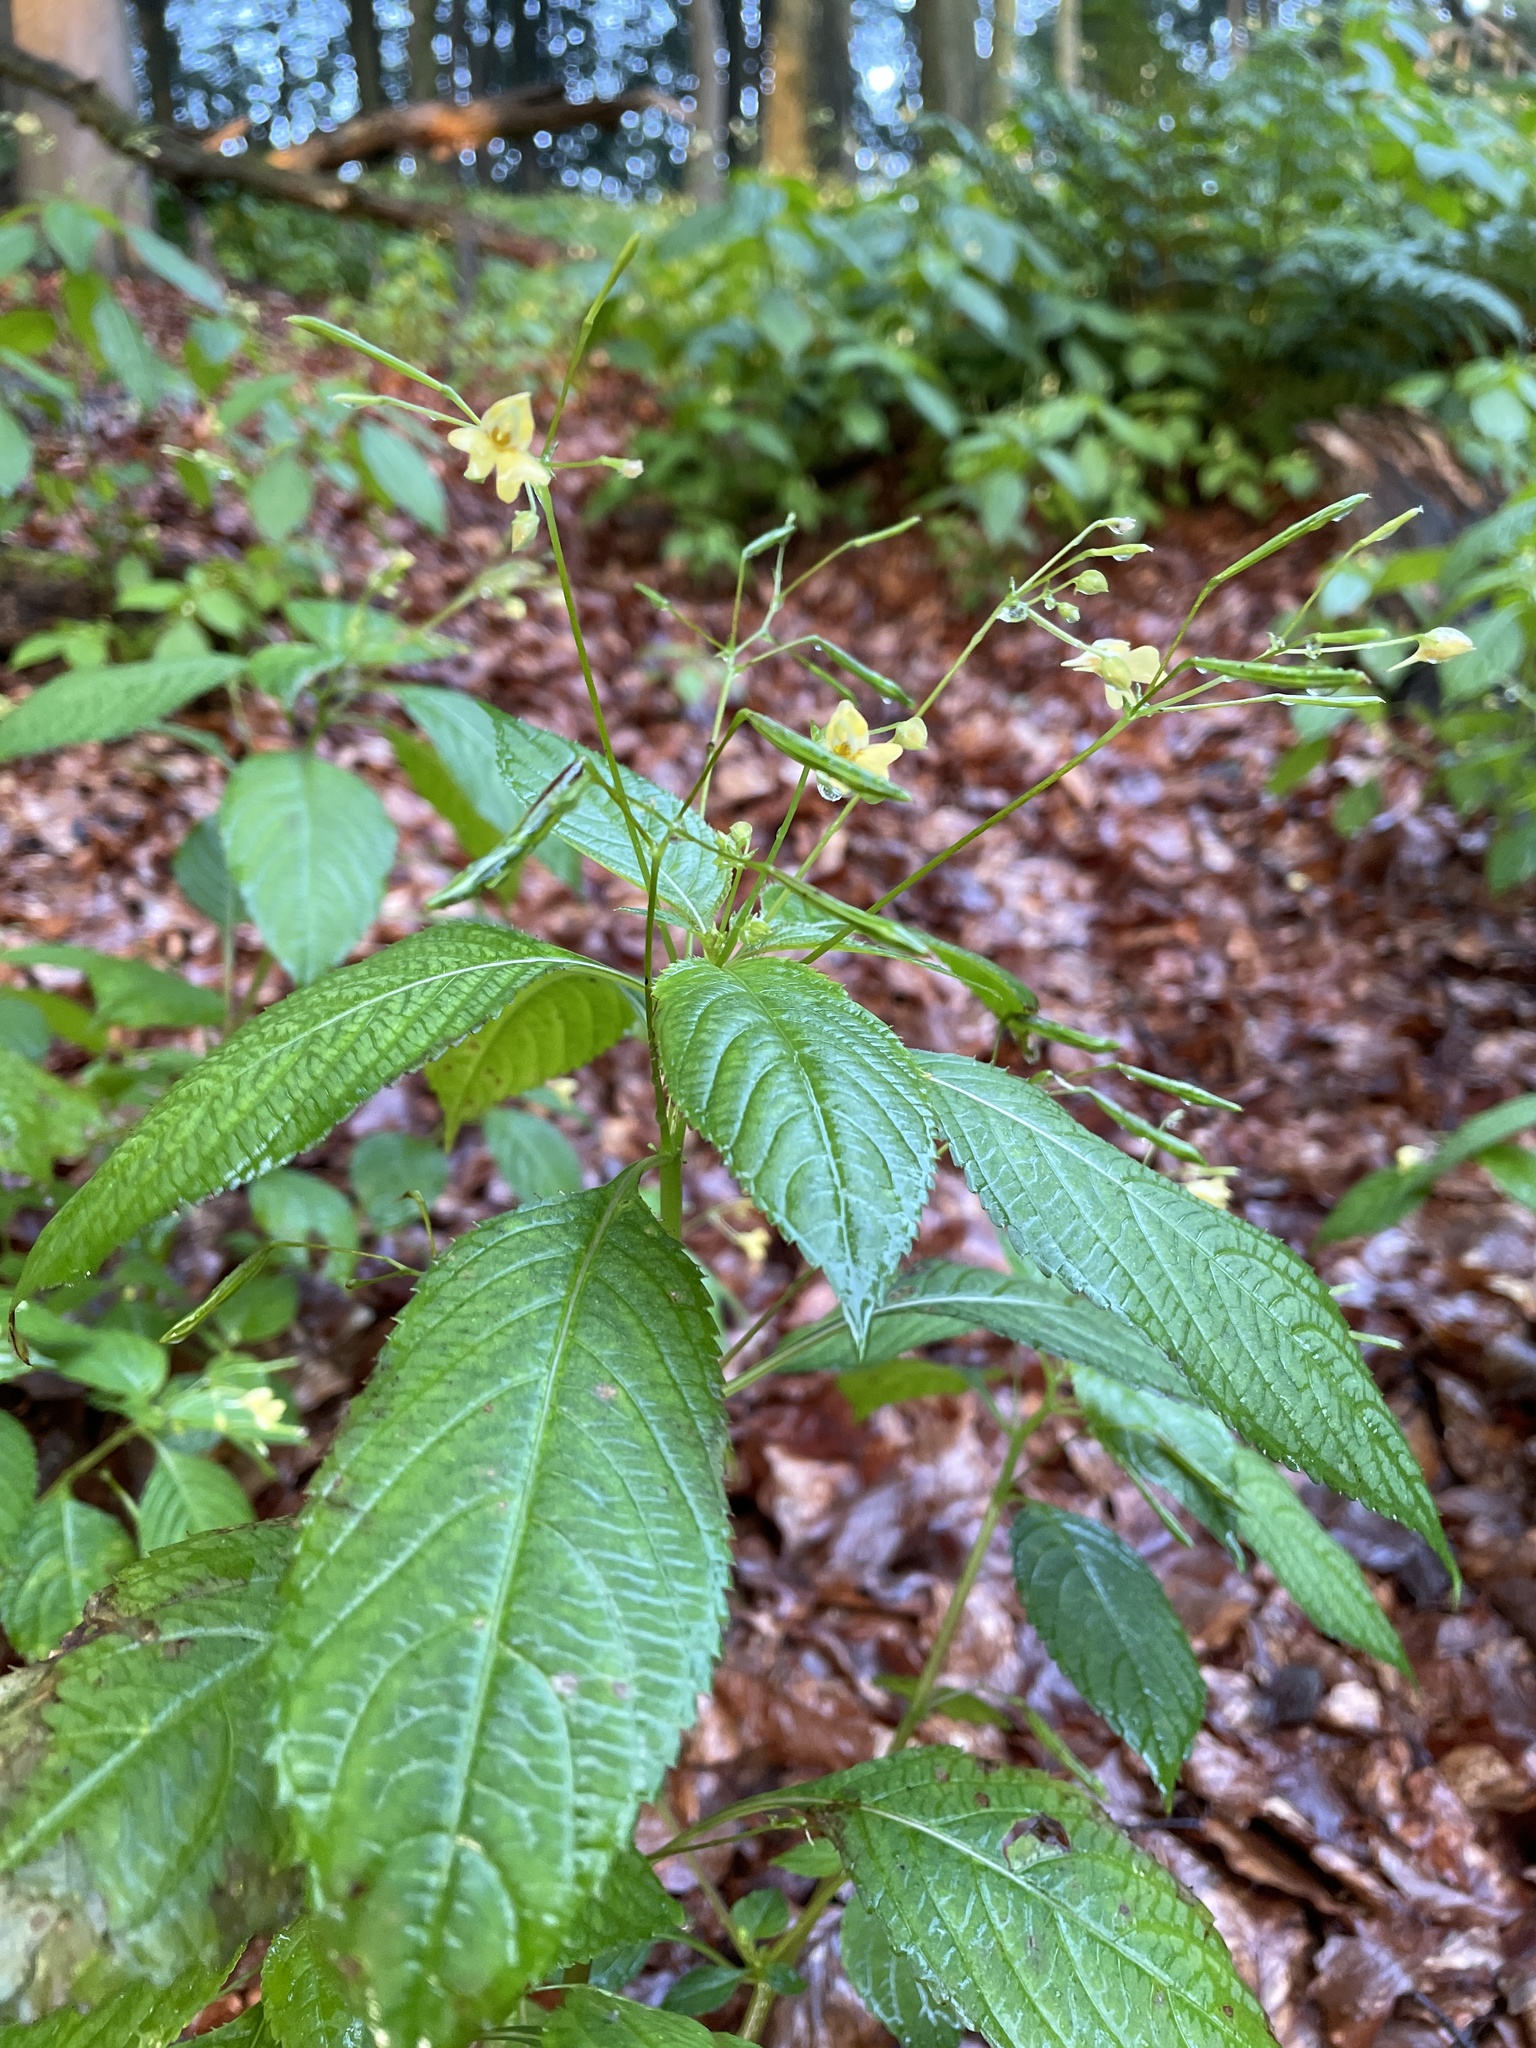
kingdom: Plantae
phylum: Tracheophyta
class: Magnoliopsida
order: Ericales
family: Balsaminaceae
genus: Impatiens
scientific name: Impatiens parviflora
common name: Small balsam
